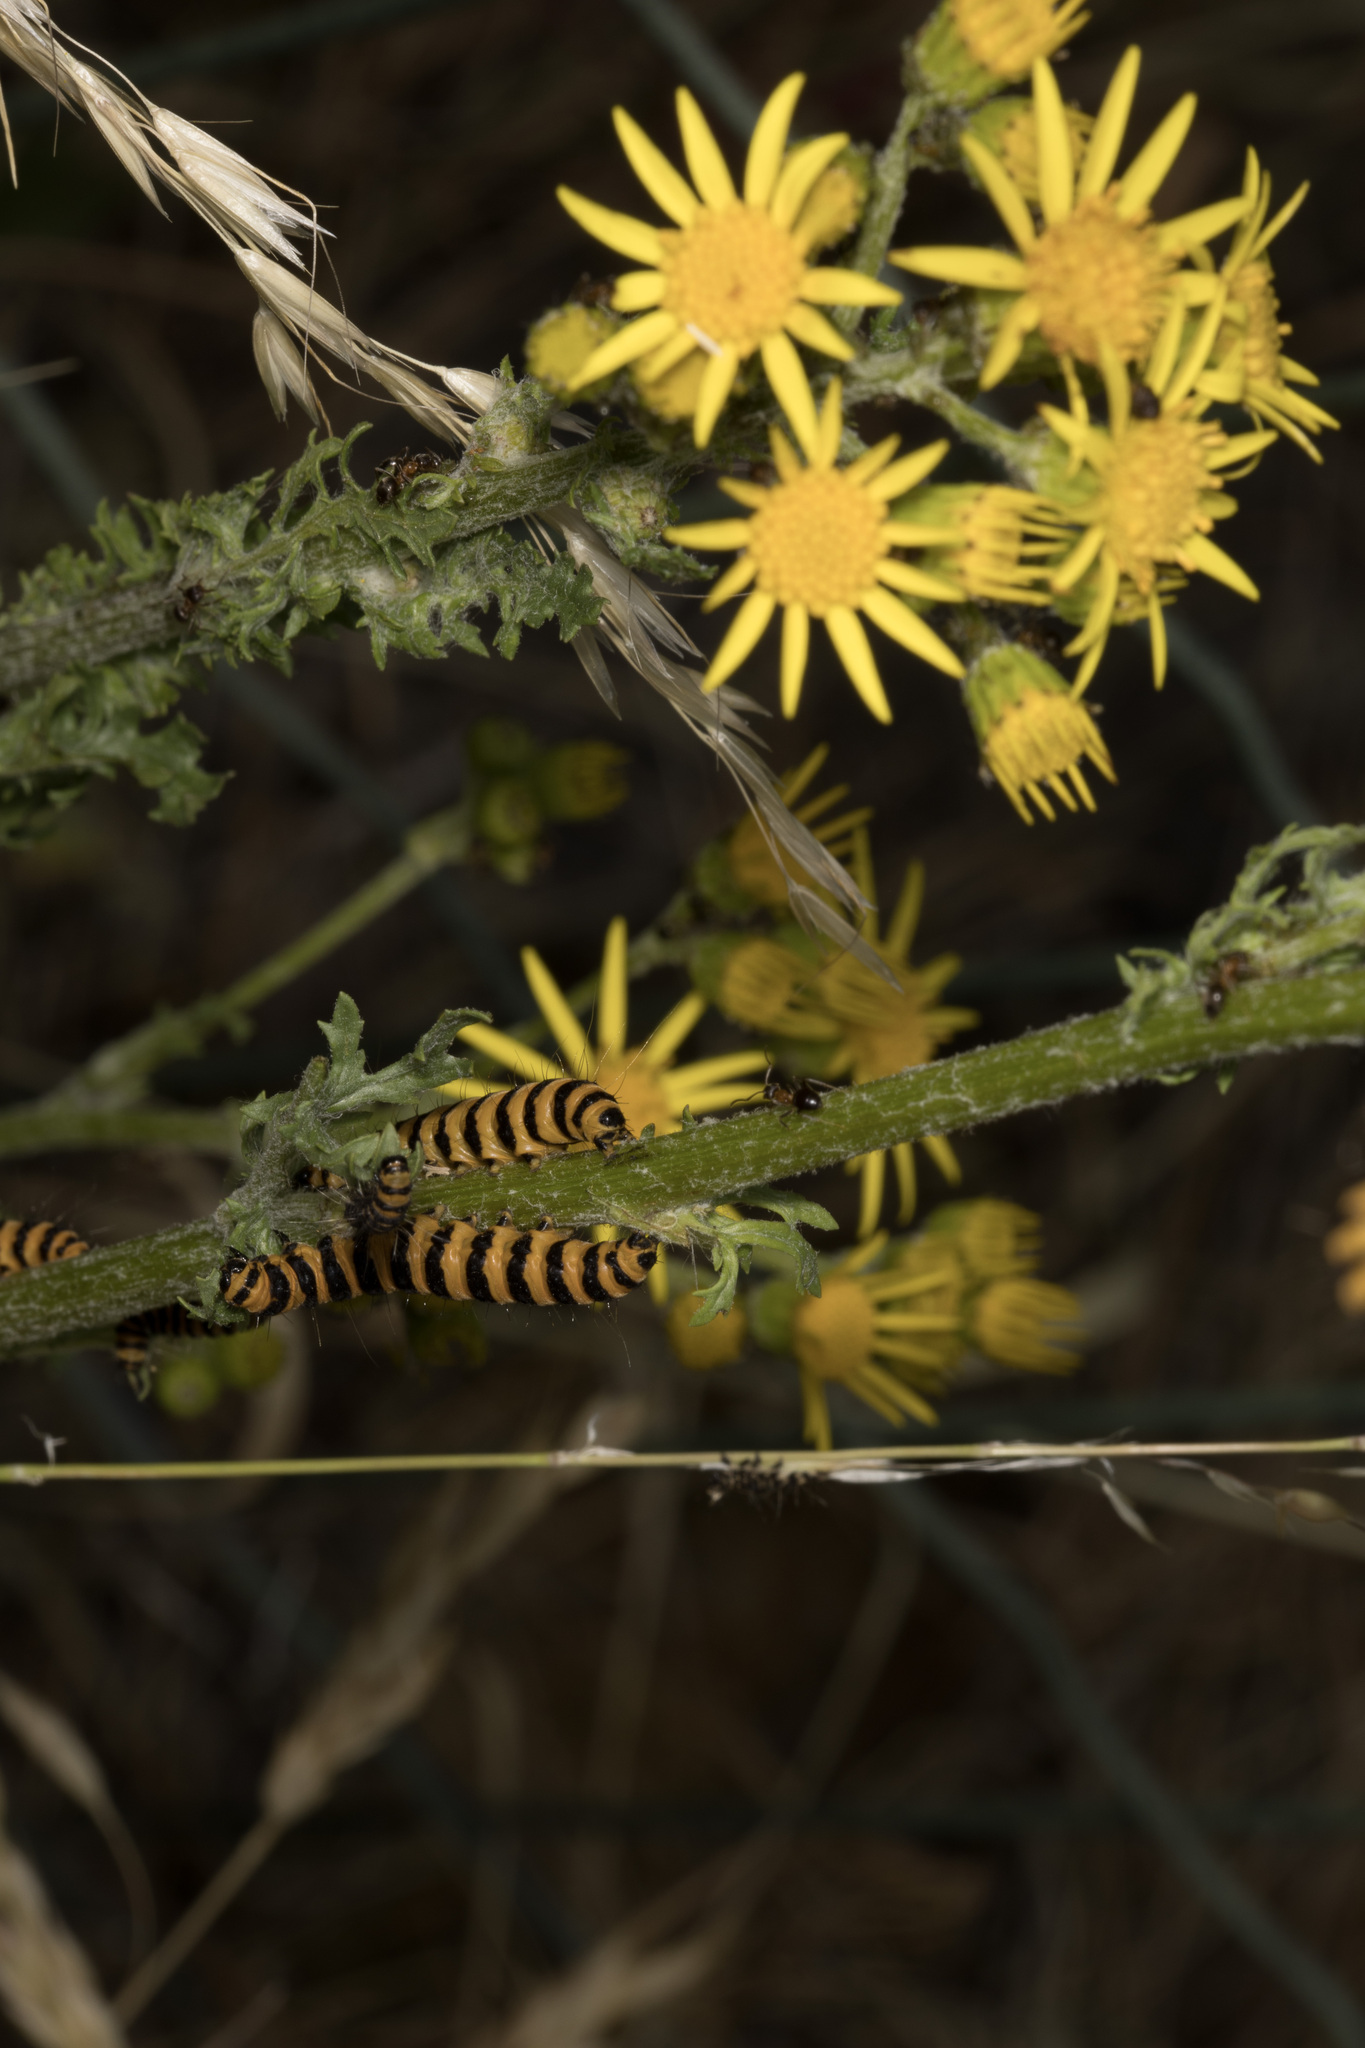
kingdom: Animalia
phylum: Arthropoda
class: Insecta
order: Lepidoptera
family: Erebidae
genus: Tyria
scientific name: Tyria jacobaeae
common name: Cinnabar
